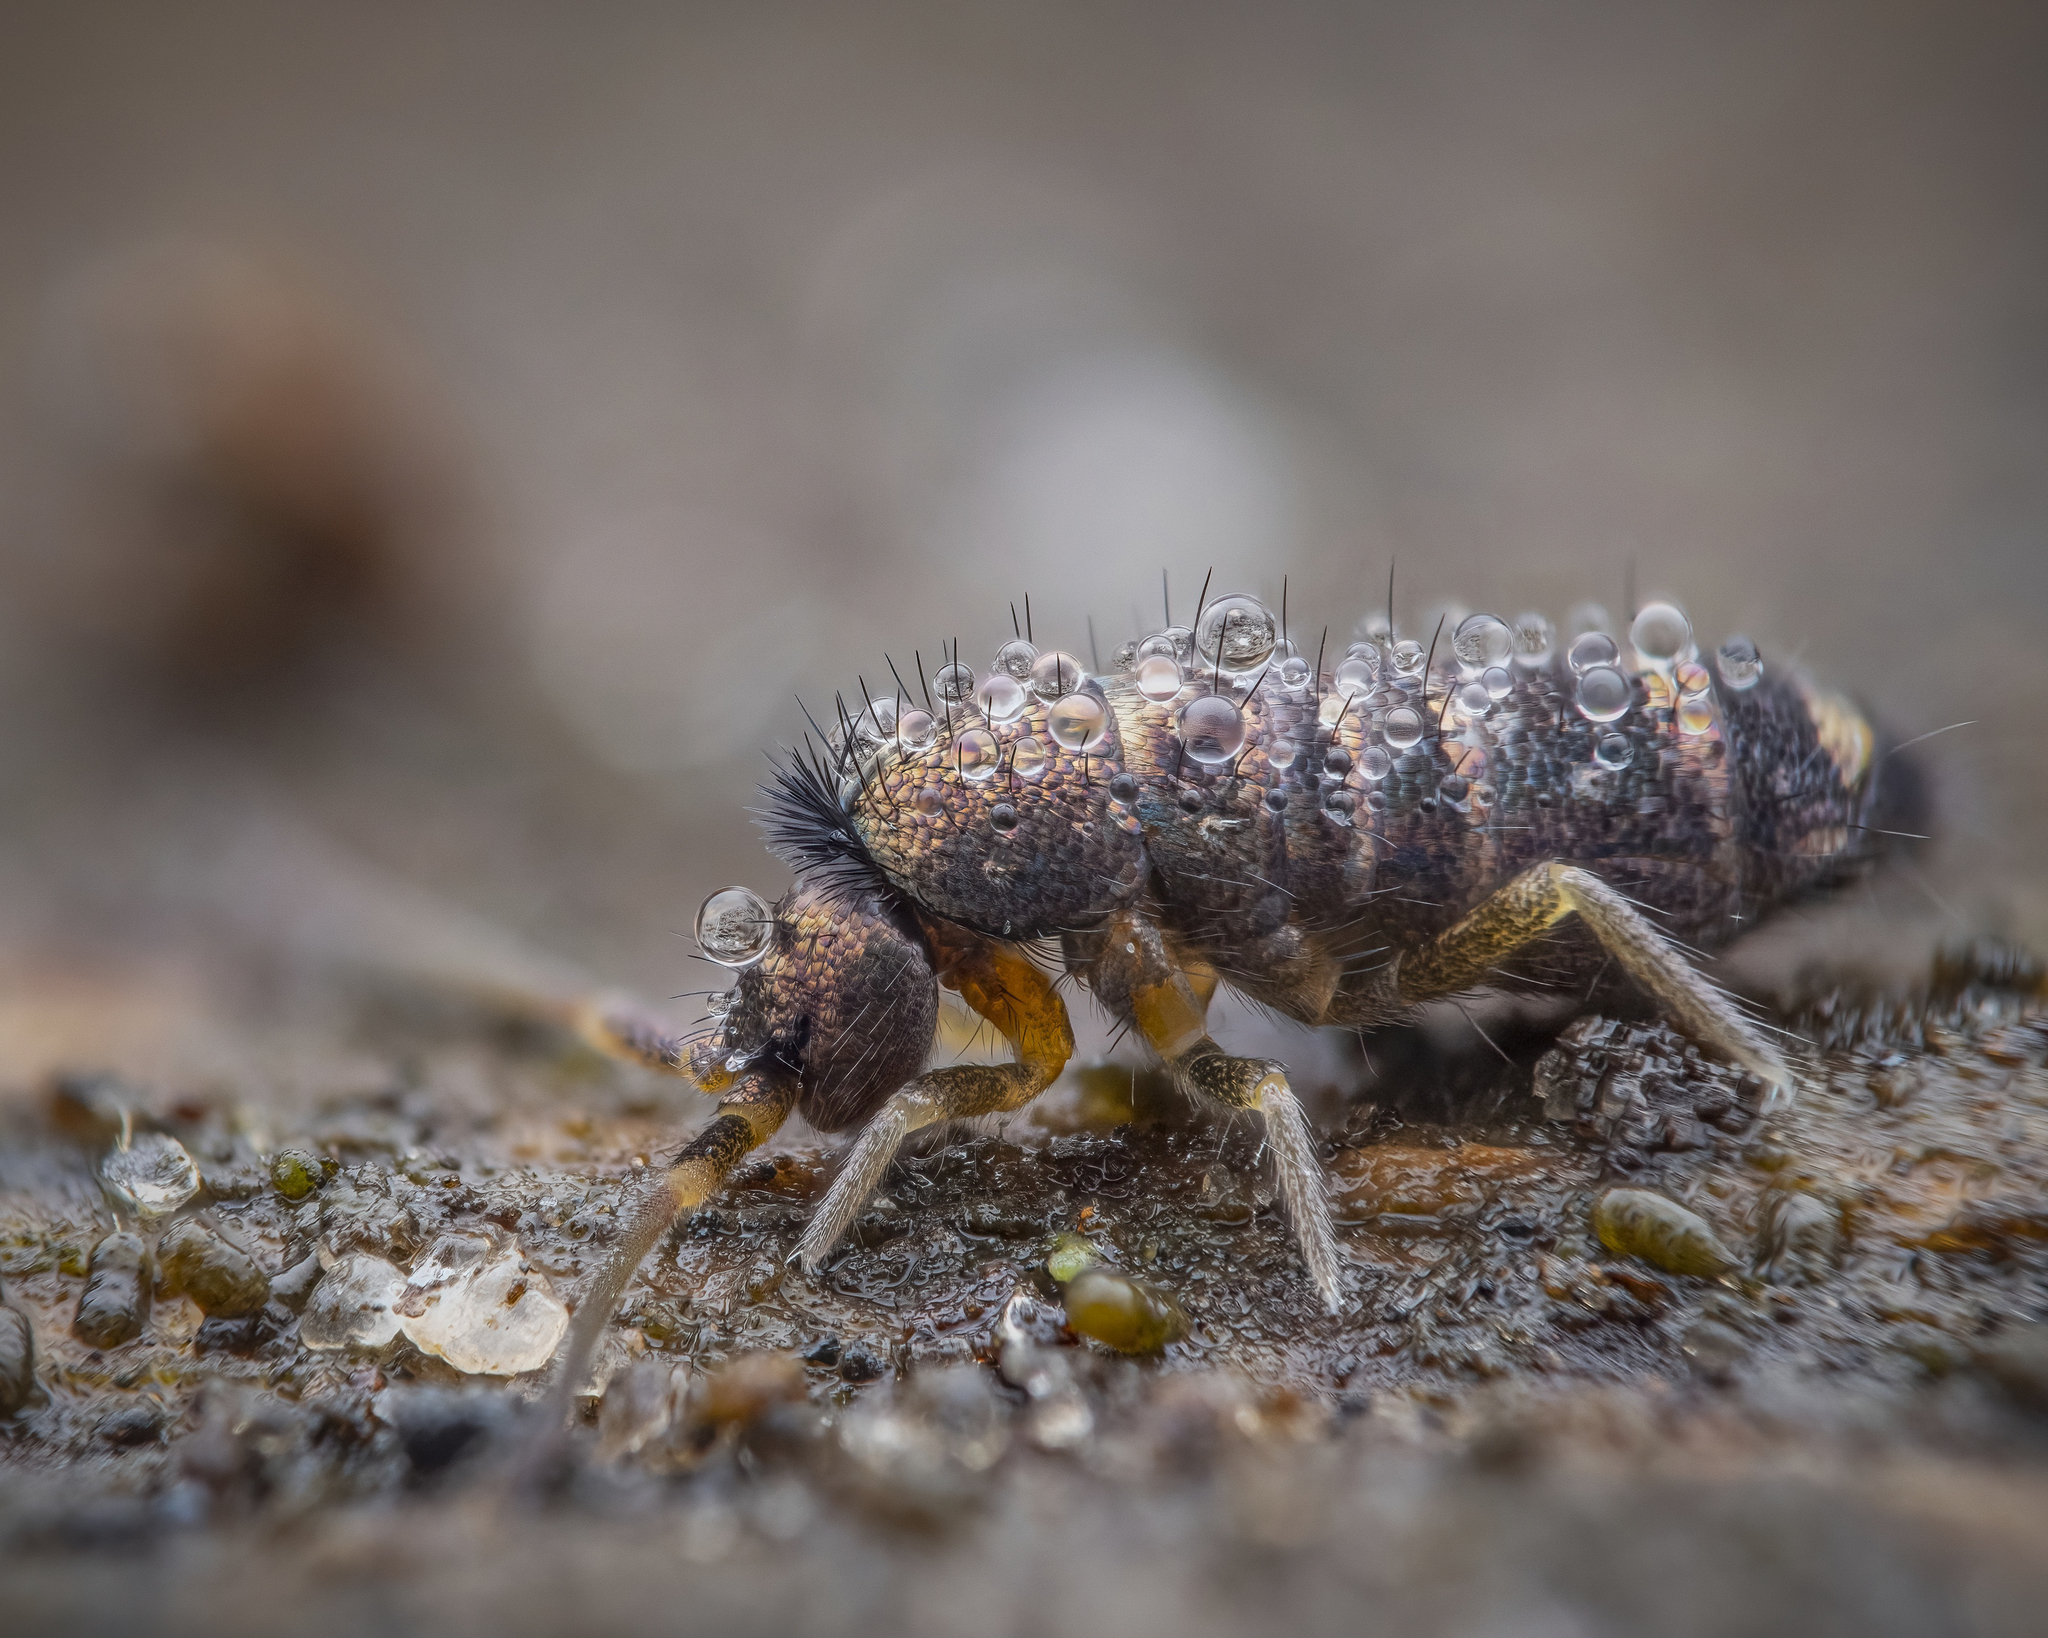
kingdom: Animalia
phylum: Arthropoda
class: Collembola
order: Entomobryomorpha
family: Tomoceridae
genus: Tomocerus
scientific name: Tomocerus vulgaris
